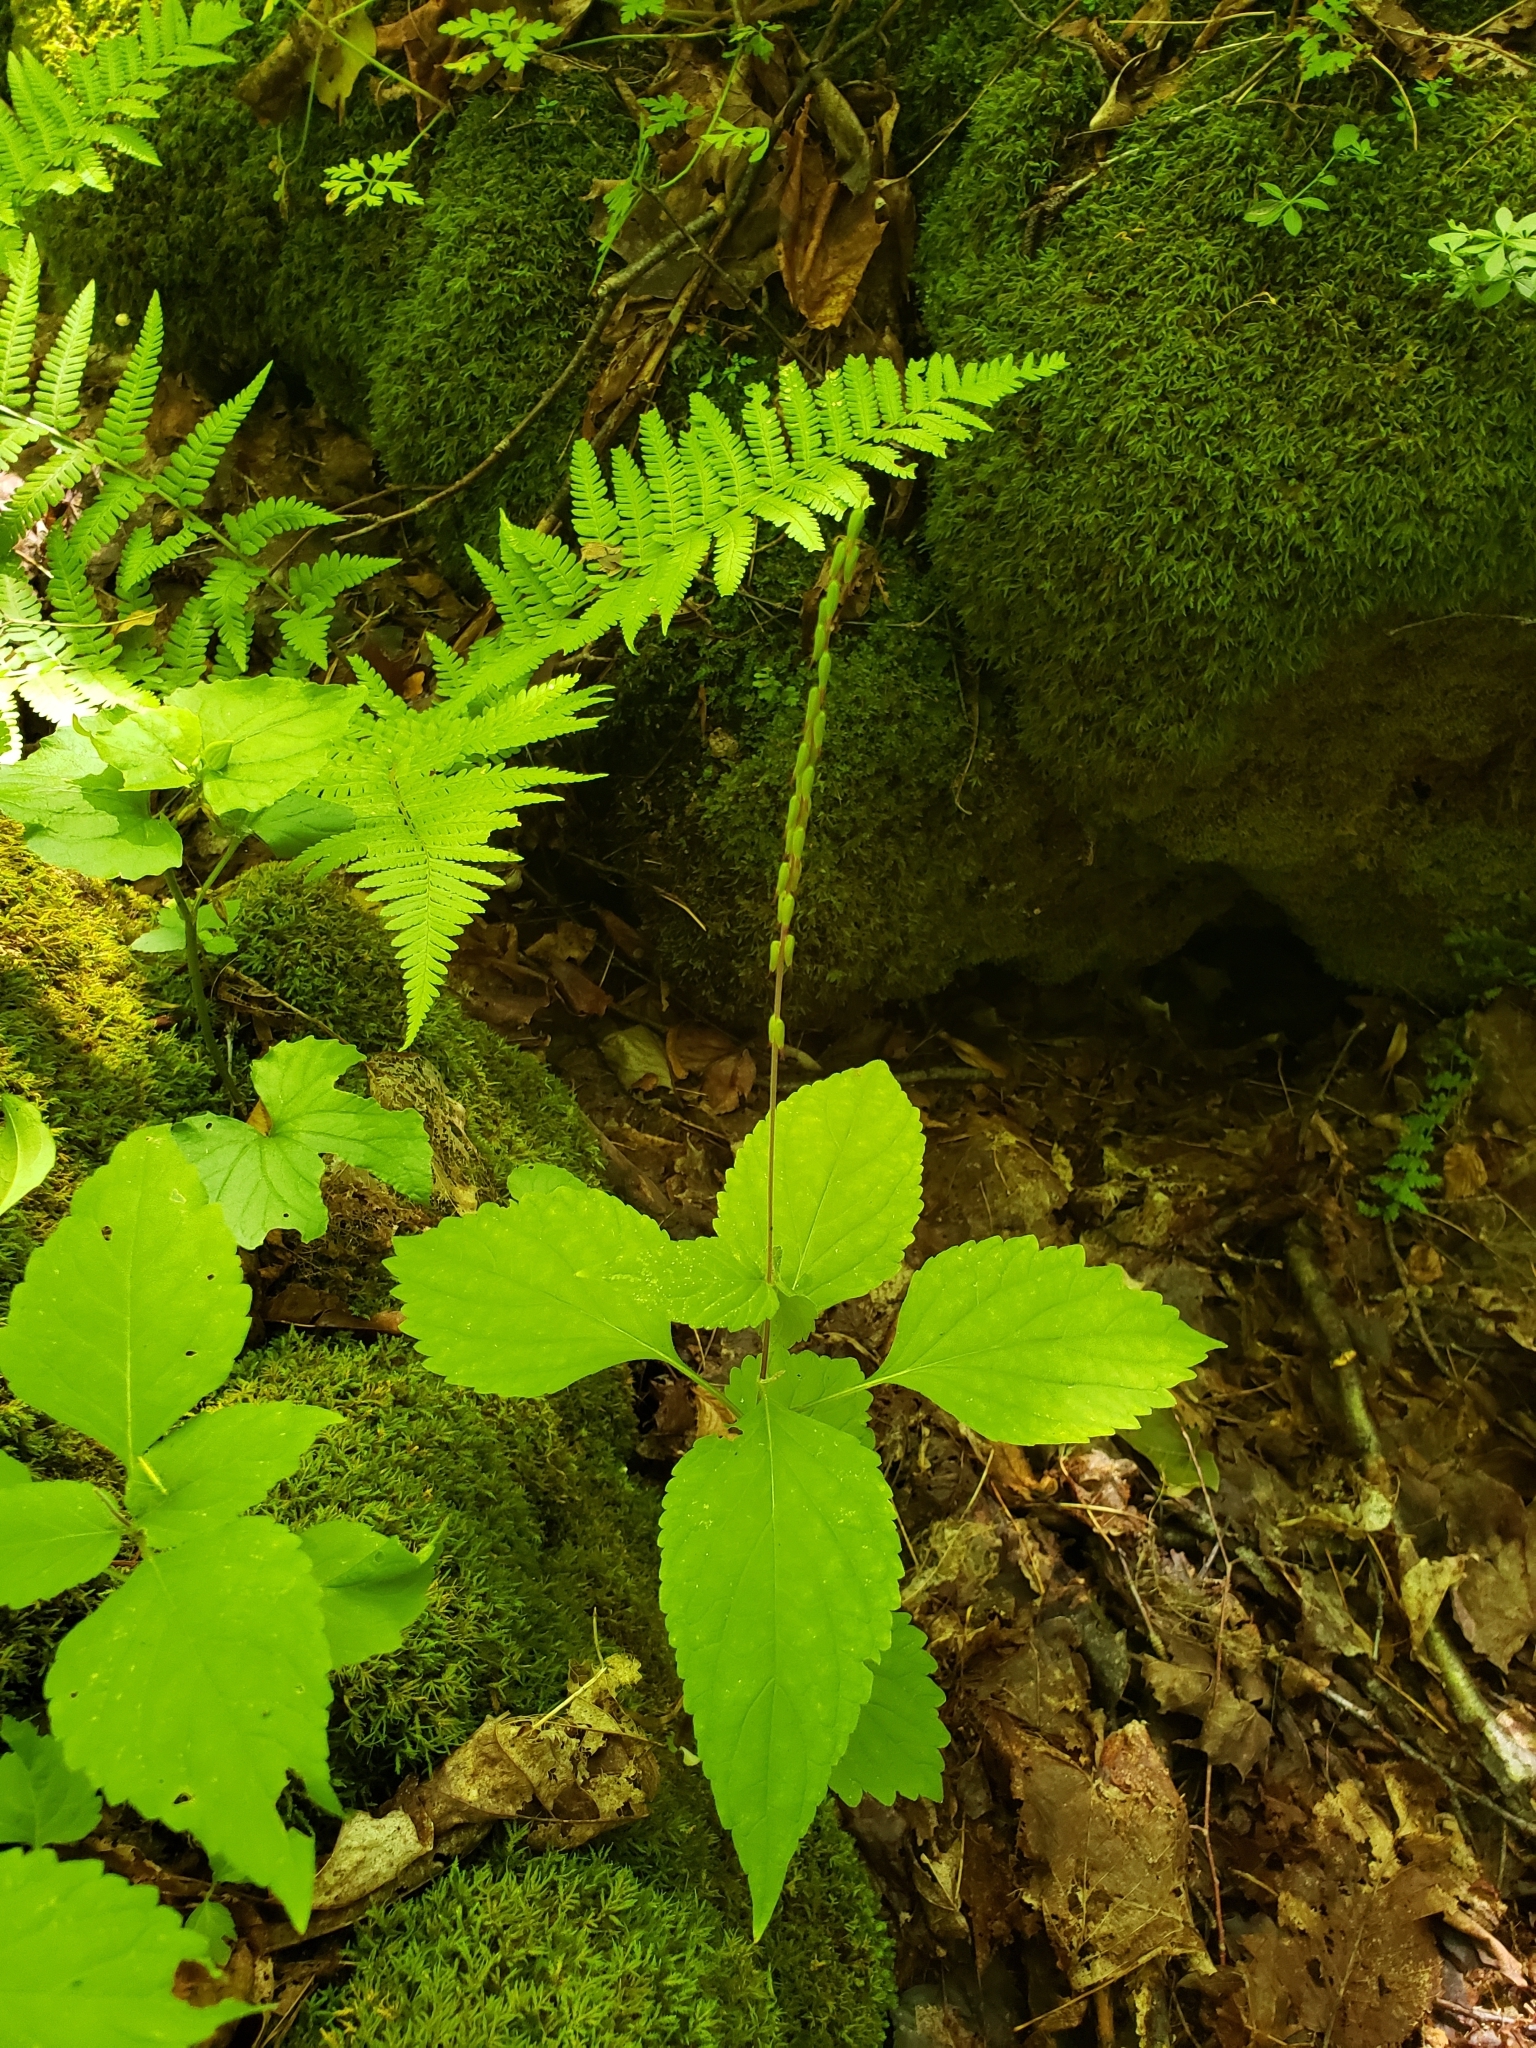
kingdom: Plantae
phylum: Tracheophyta
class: Magnoliopsida
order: Lamiales
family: Phrymaceae
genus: Phryma
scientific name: Phryma leptostachya
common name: American lopseed
